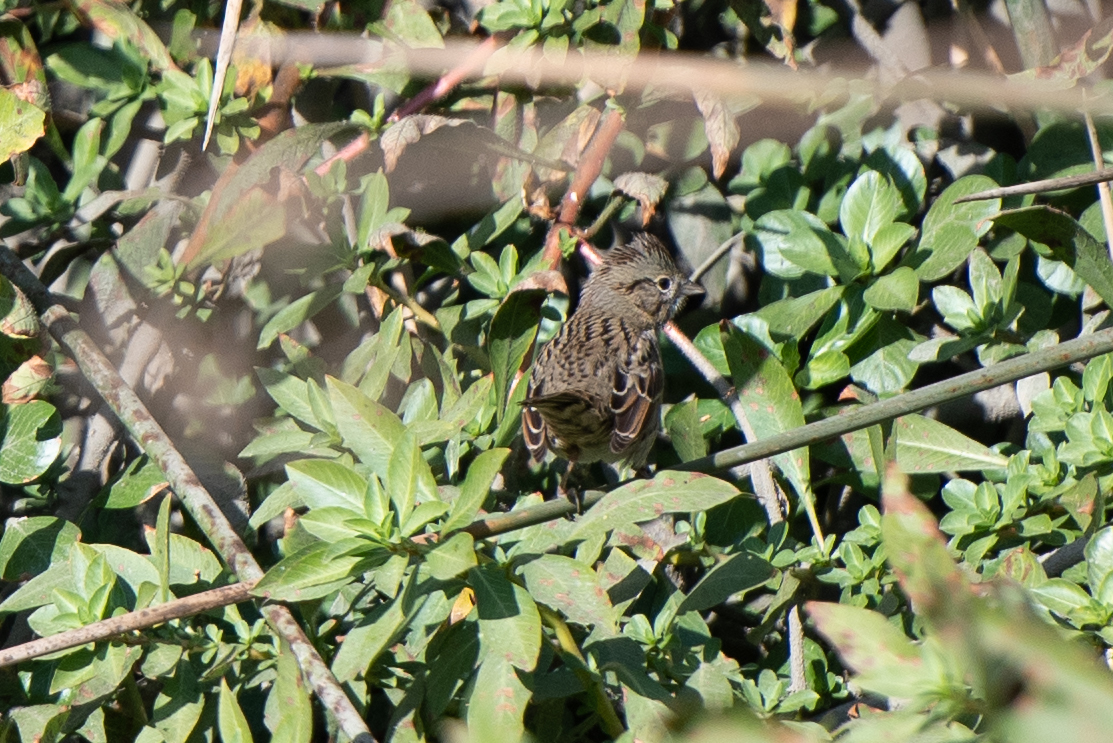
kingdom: Animalia
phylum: Chordata
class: Aves
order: Passeriformes
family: Passerellidae
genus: Melospiza
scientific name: Melospiza lincolnii
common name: Lincoln's sparrow
